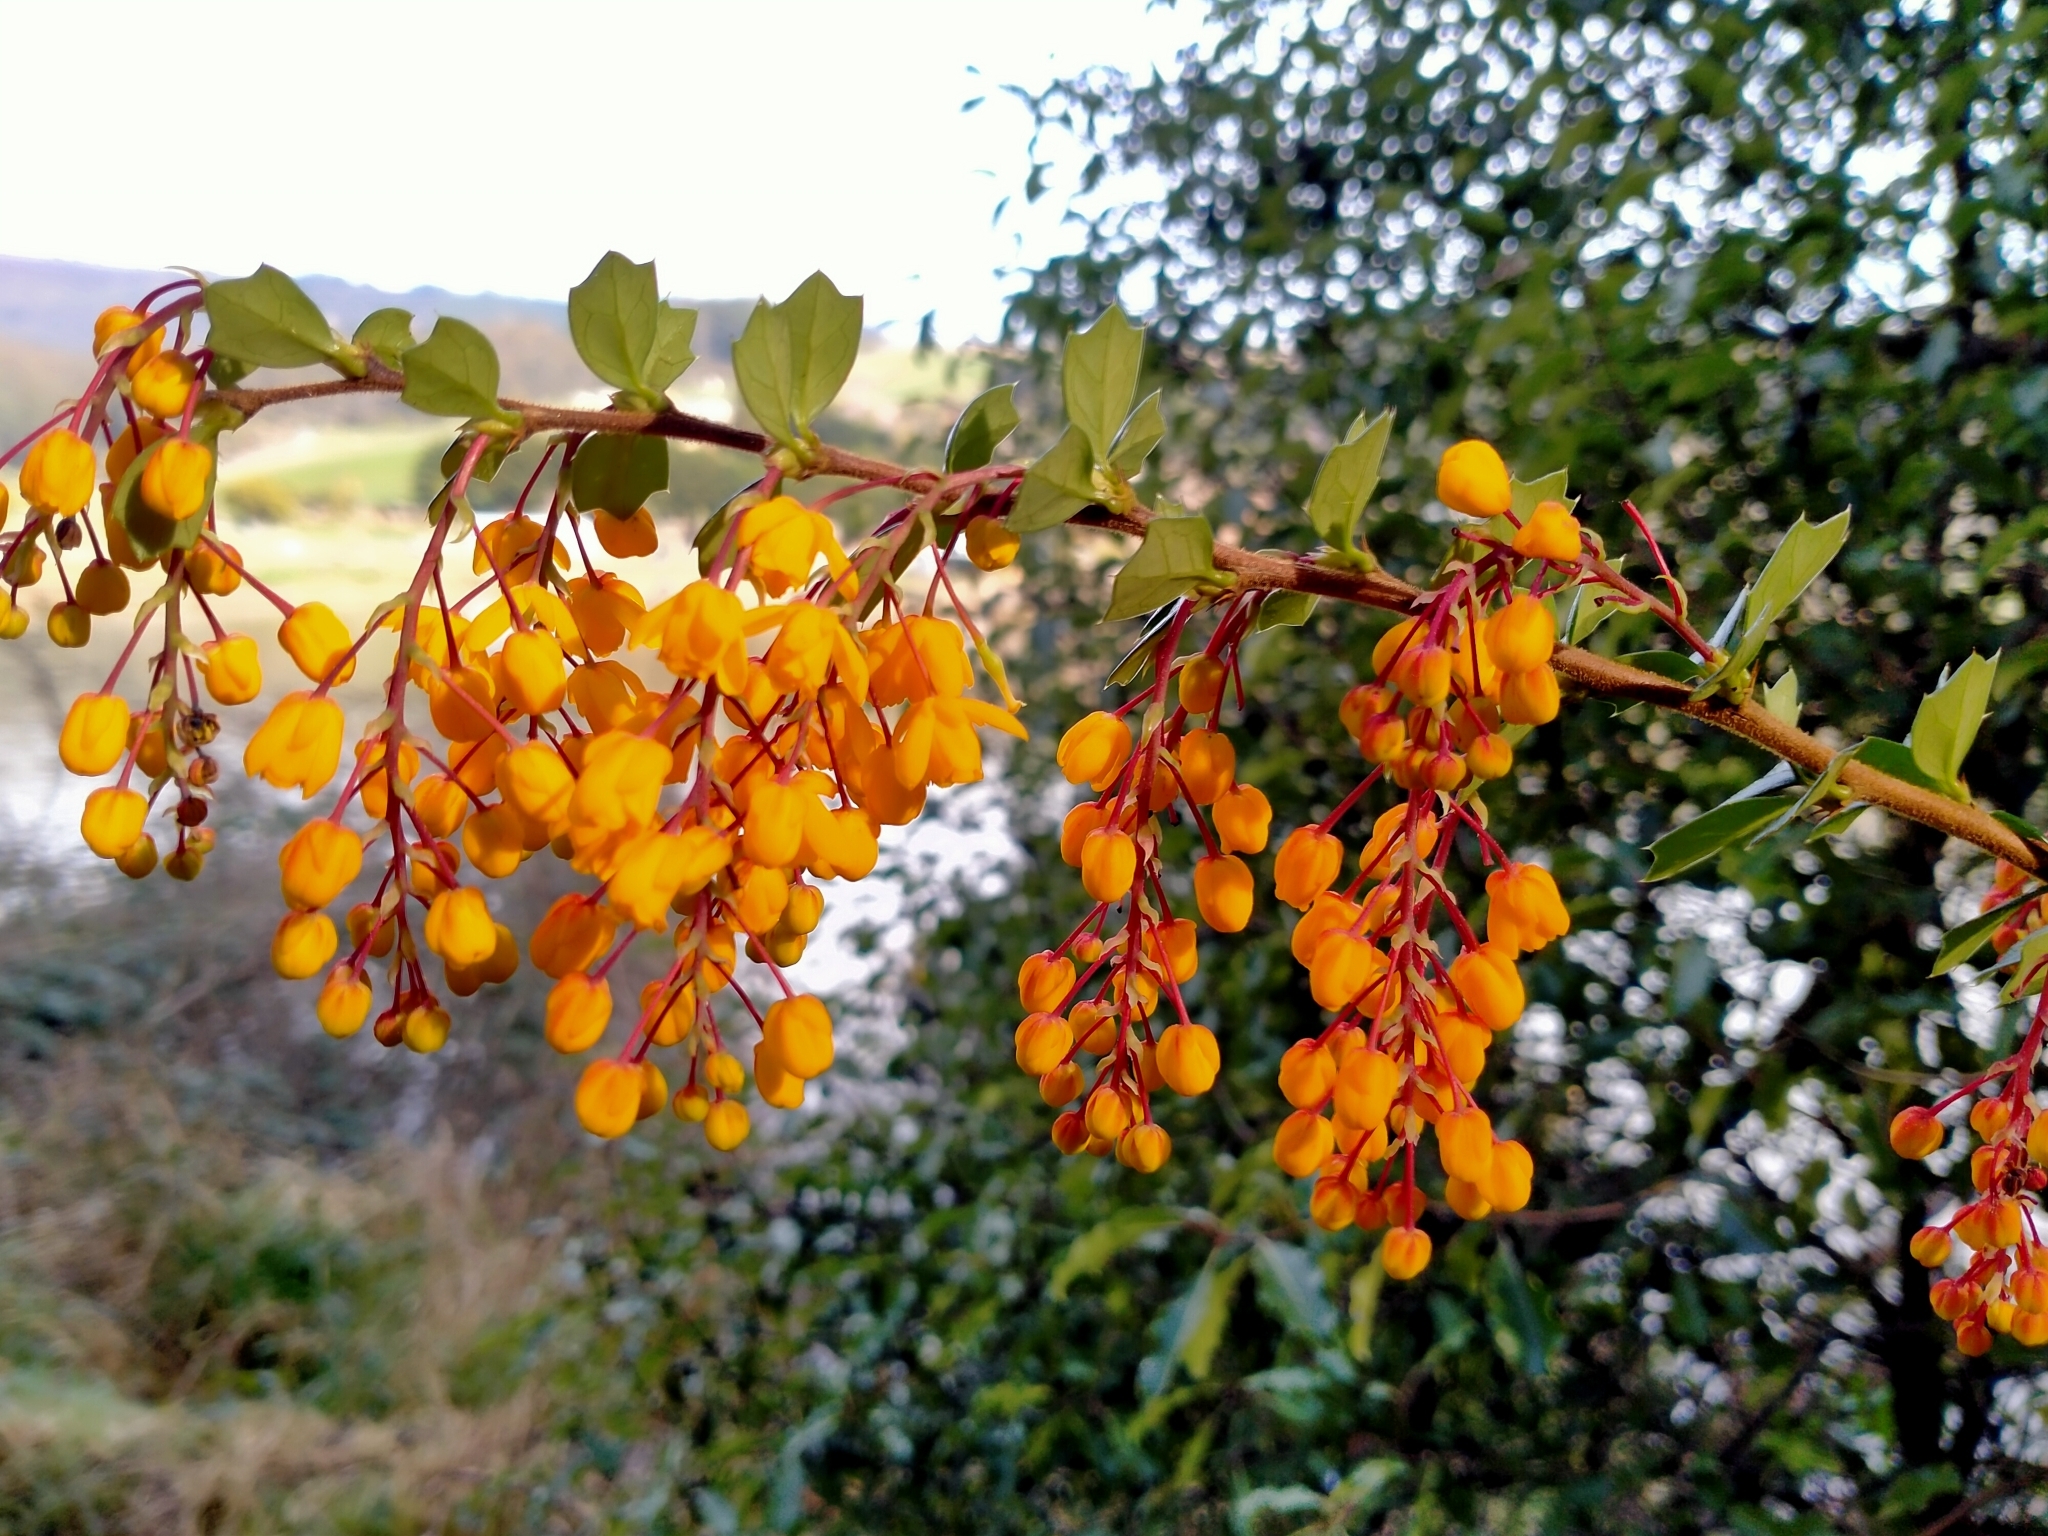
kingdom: Plantae
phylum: Tracheophyta
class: Magnoliopsida
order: Ranunculales
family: Berberidaceae
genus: Berberis
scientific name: Berberis darwinii
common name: Darwin's barberry
